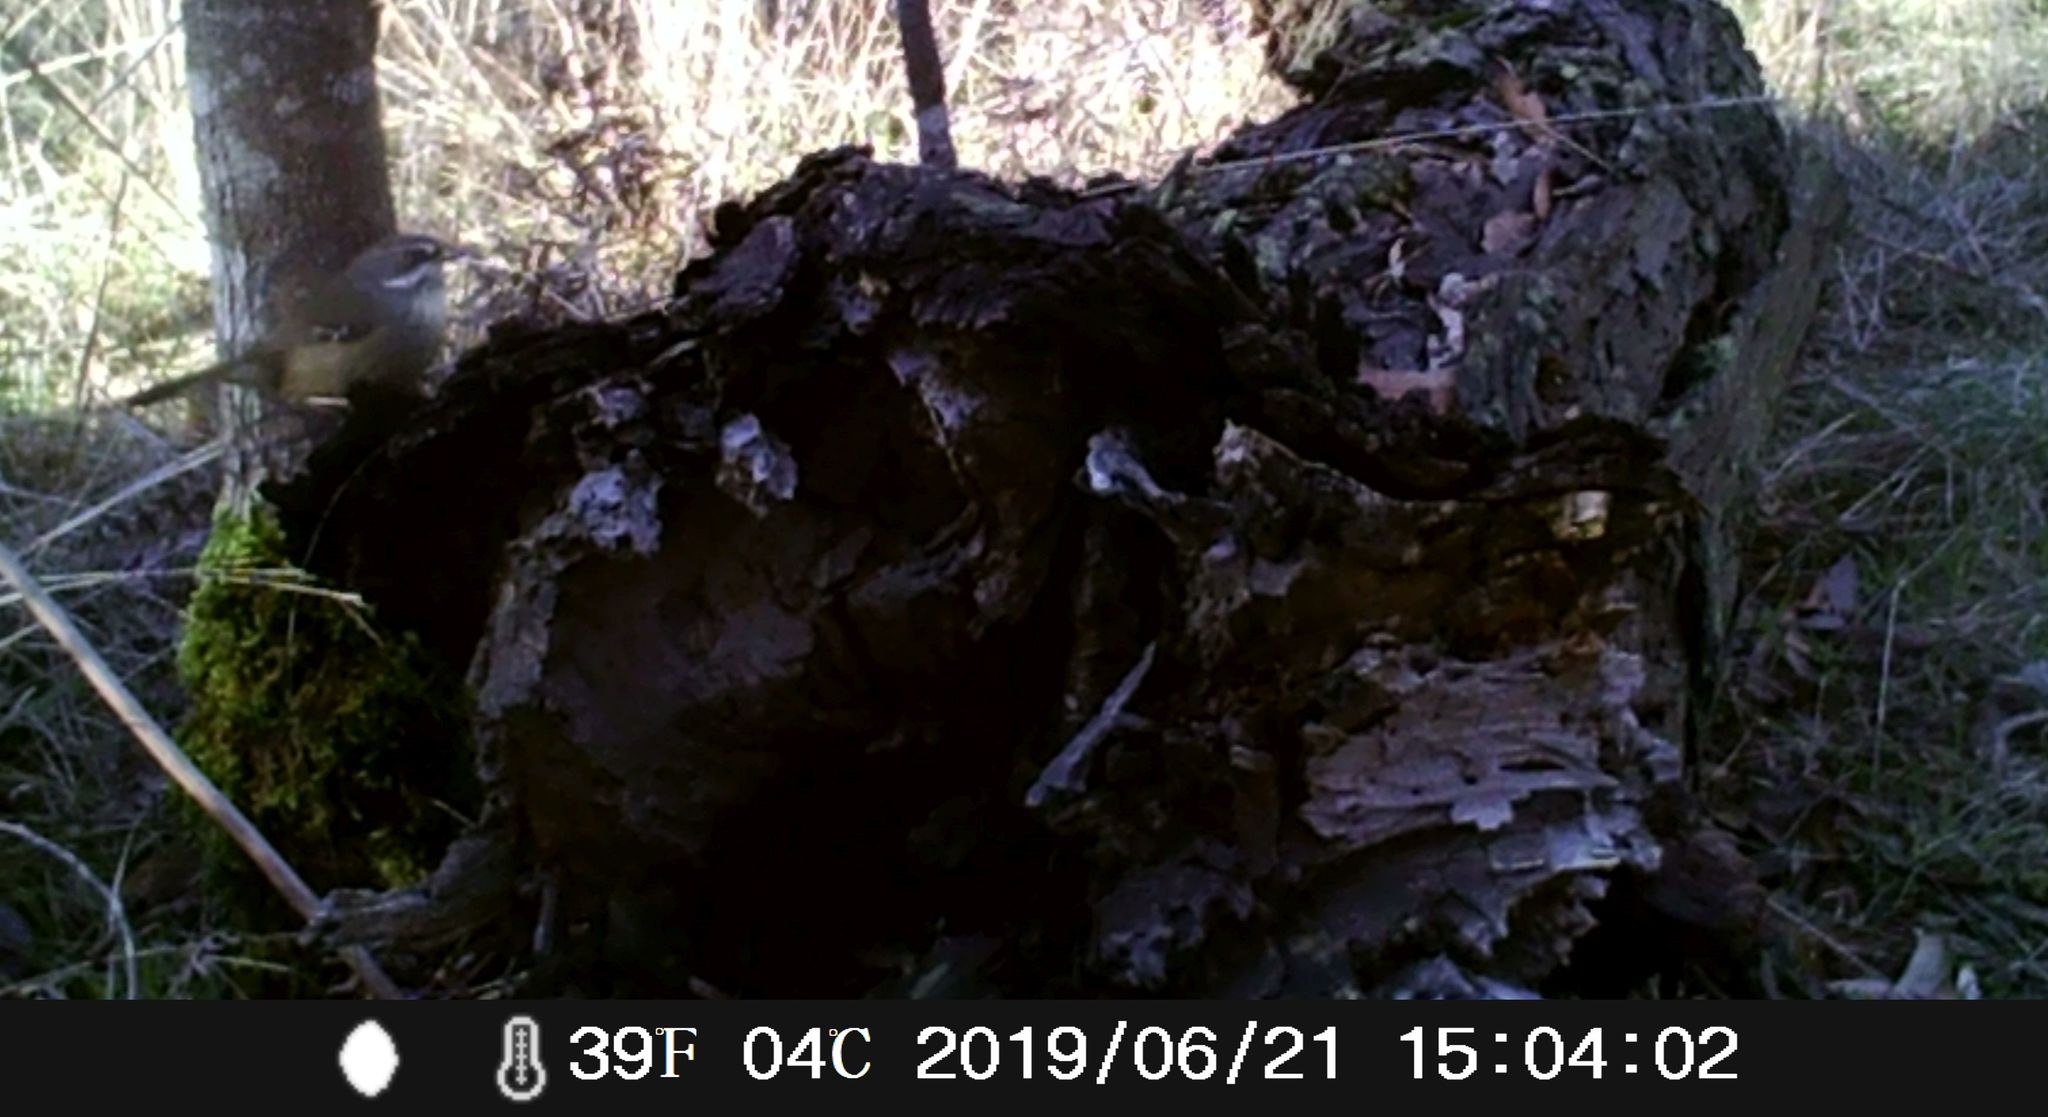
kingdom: Animalia
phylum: Chordata
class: Aves
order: Passeriformes
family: Acanthizidae
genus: Sericornis
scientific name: Sericornis frontalis
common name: White-browed scrubwren
